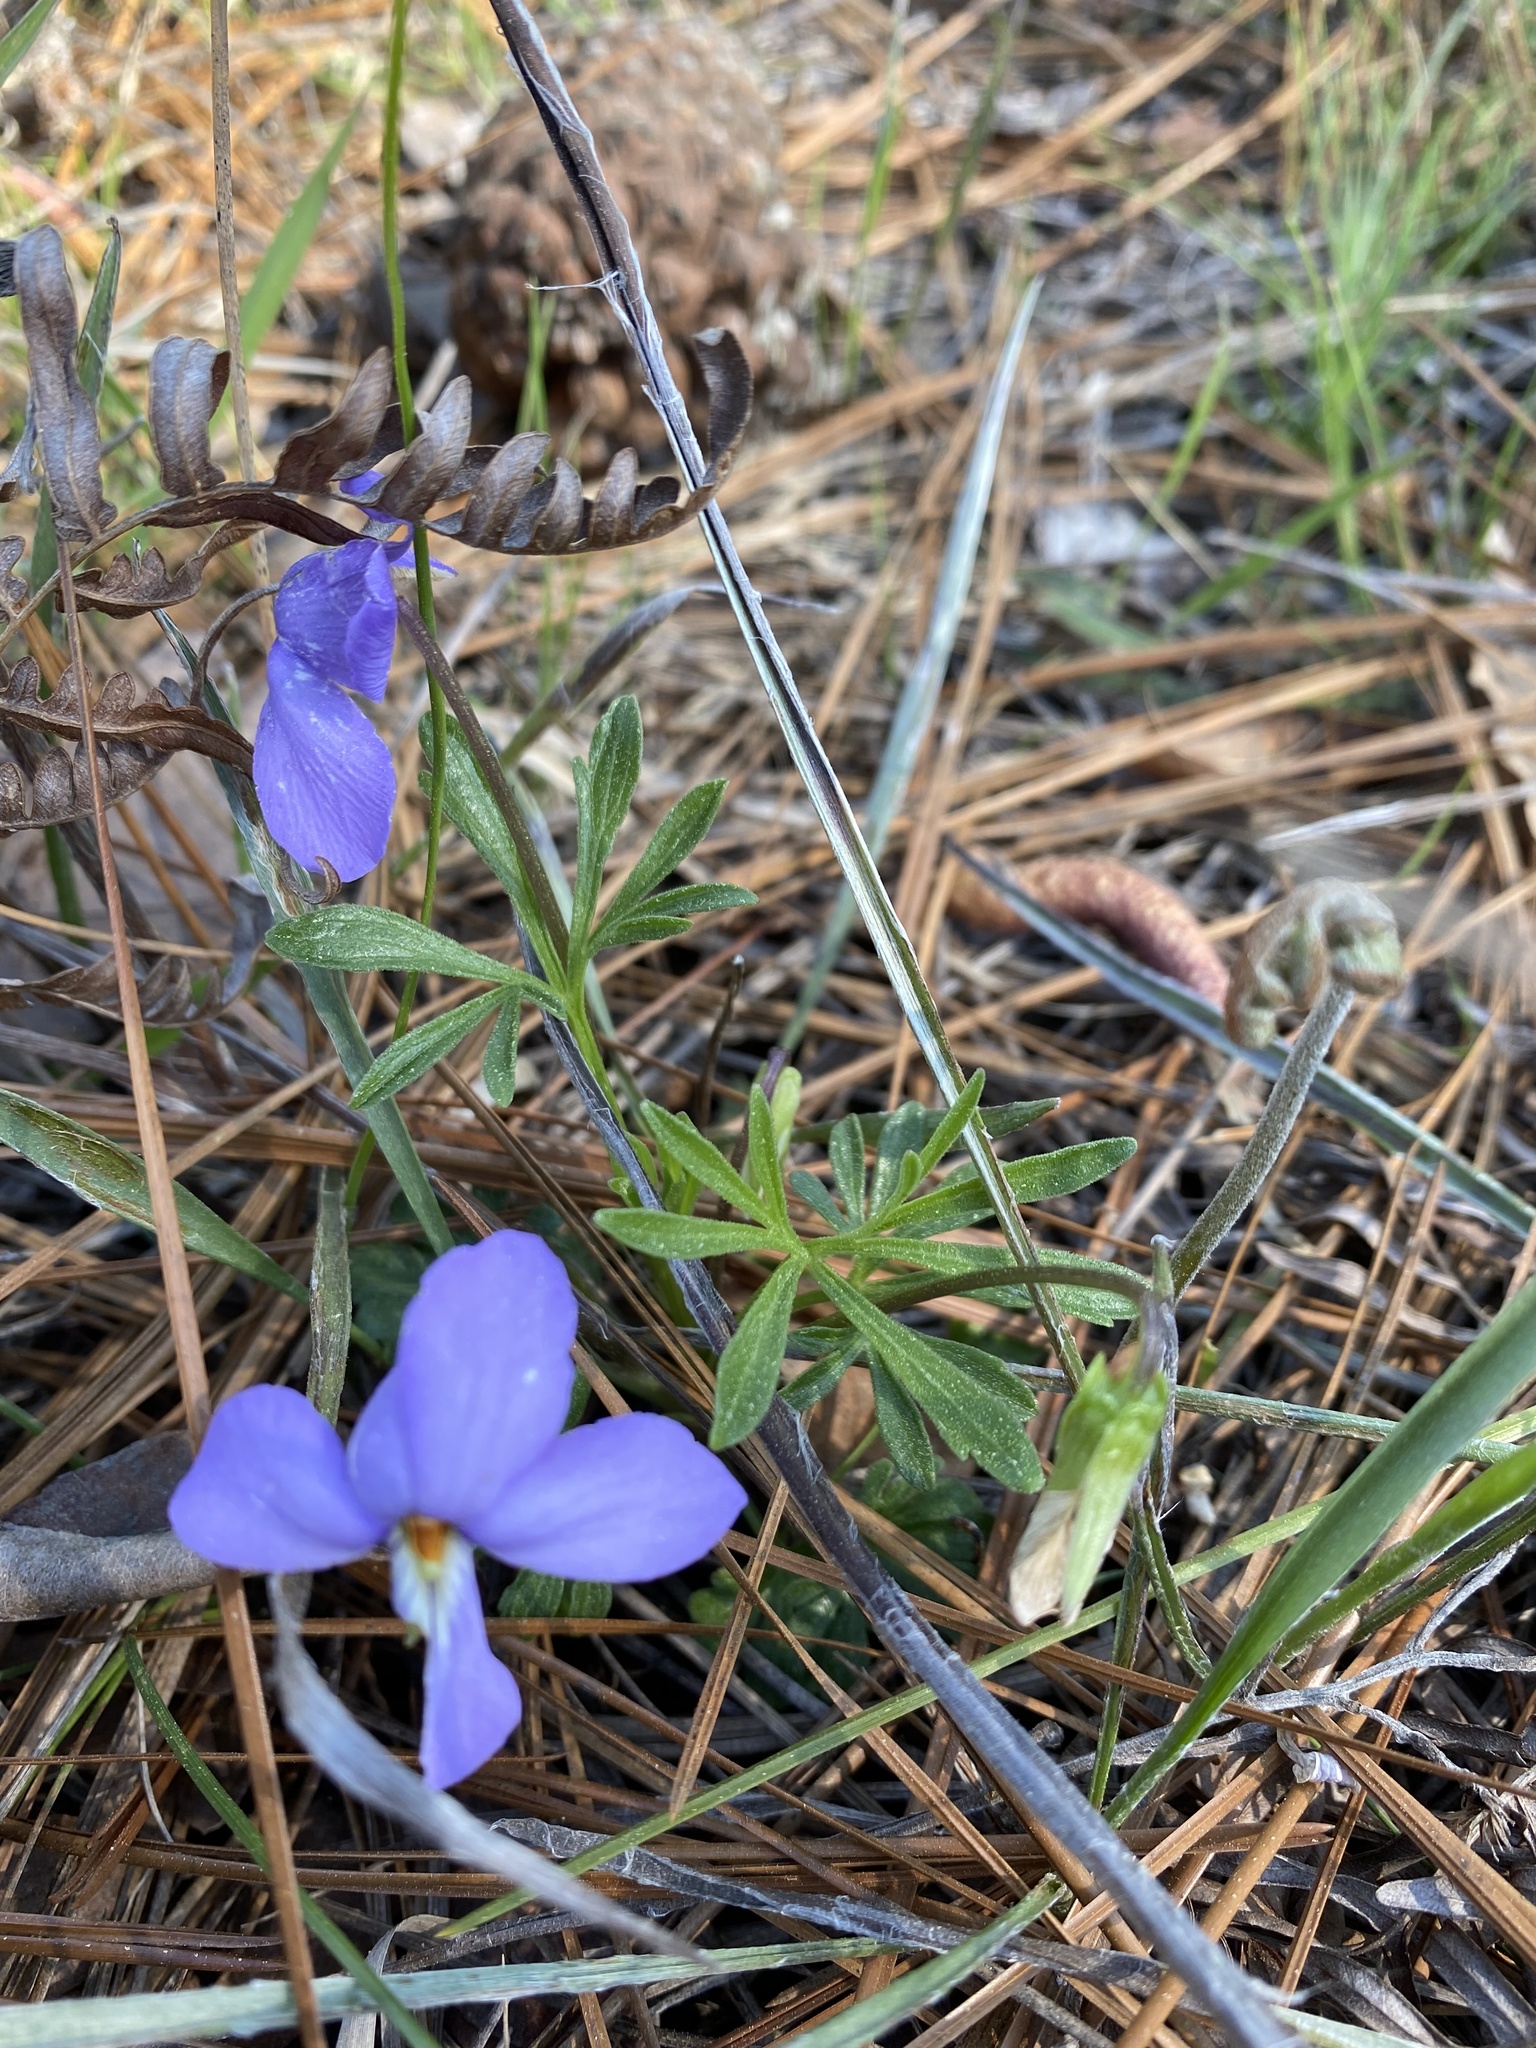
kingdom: Plantae
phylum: Tracheophyta
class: Magnoliopsida
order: Malpighiales
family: Violaceae
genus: Viola
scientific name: Viola pedata
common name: Pansy violet
